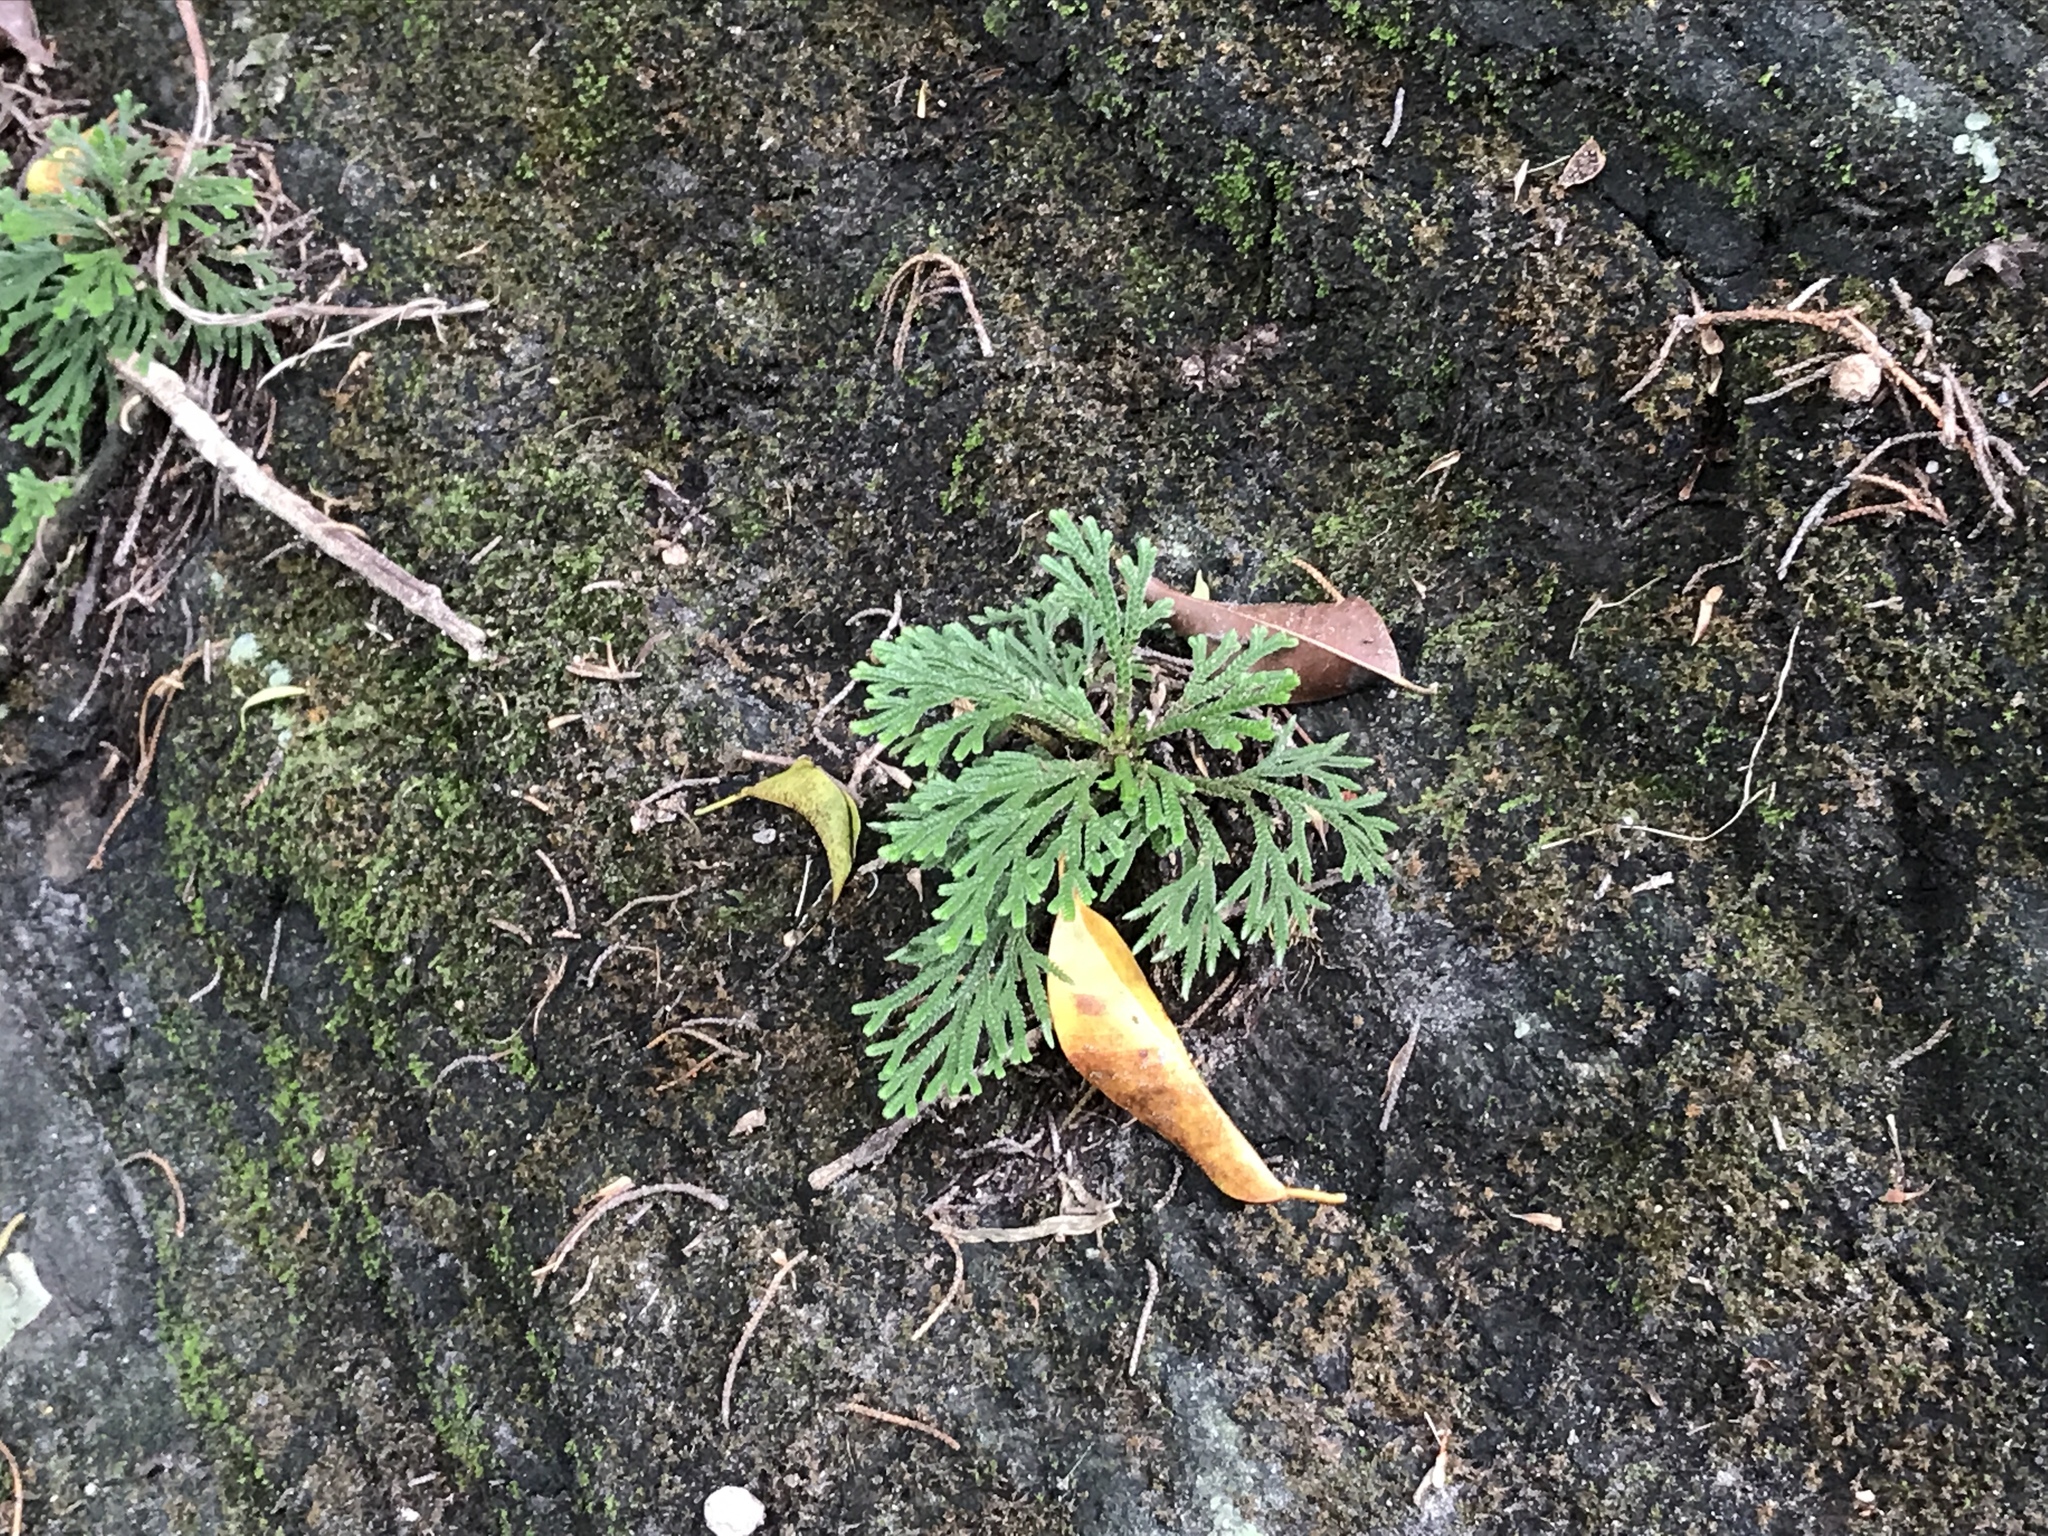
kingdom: Plantae
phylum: Tracheophyta
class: Lycopodiopsida
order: Selaginellales
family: Selaginellaceae
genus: Selaginella
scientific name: Selaginella tamariscina
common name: Little-club-moss
